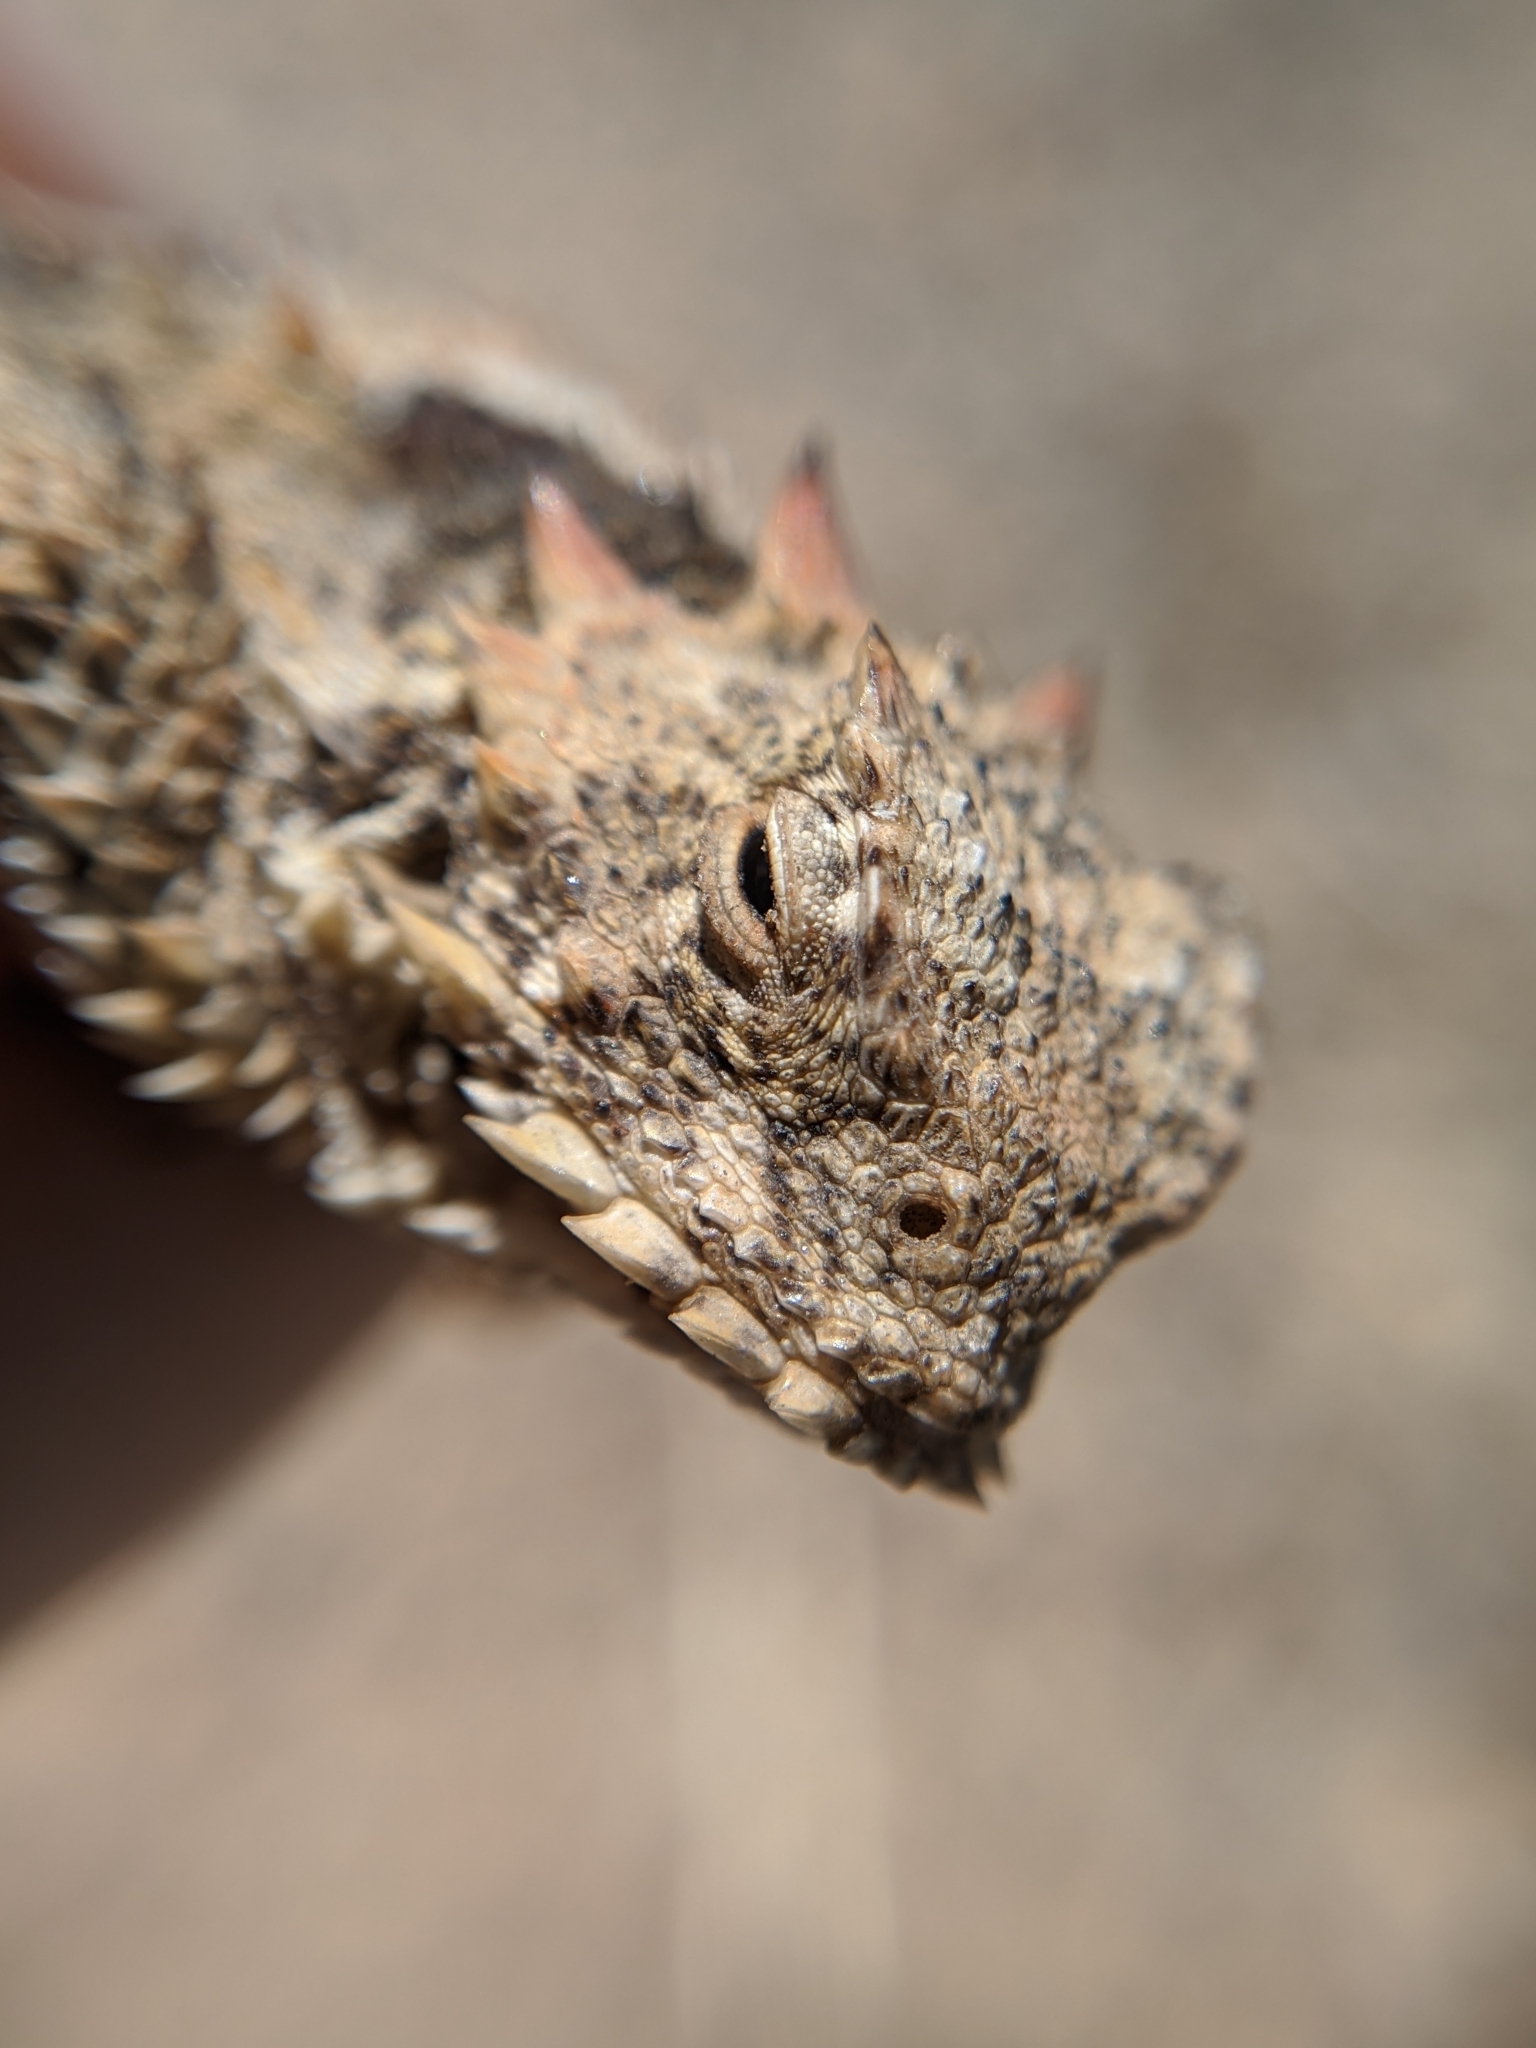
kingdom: Animalia
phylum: Chordata
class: Squamata
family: Phrynosomatidae
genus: Phrynosoma
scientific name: Phrynosoma blainvillii
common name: San diego horned lizard
